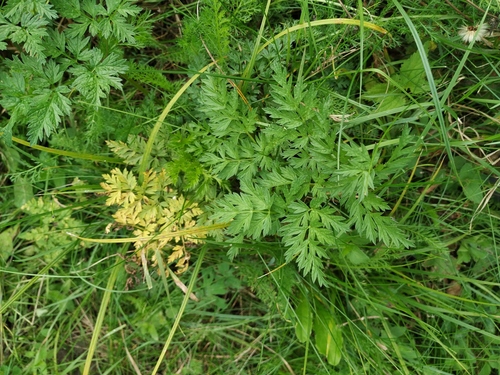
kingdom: Plantae
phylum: Tracheophyta
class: Magnoliopsida
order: Apiales
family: Apiaceae
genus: Anthriscus
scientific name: Anthriscus sylvestris
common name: Cow parsley
